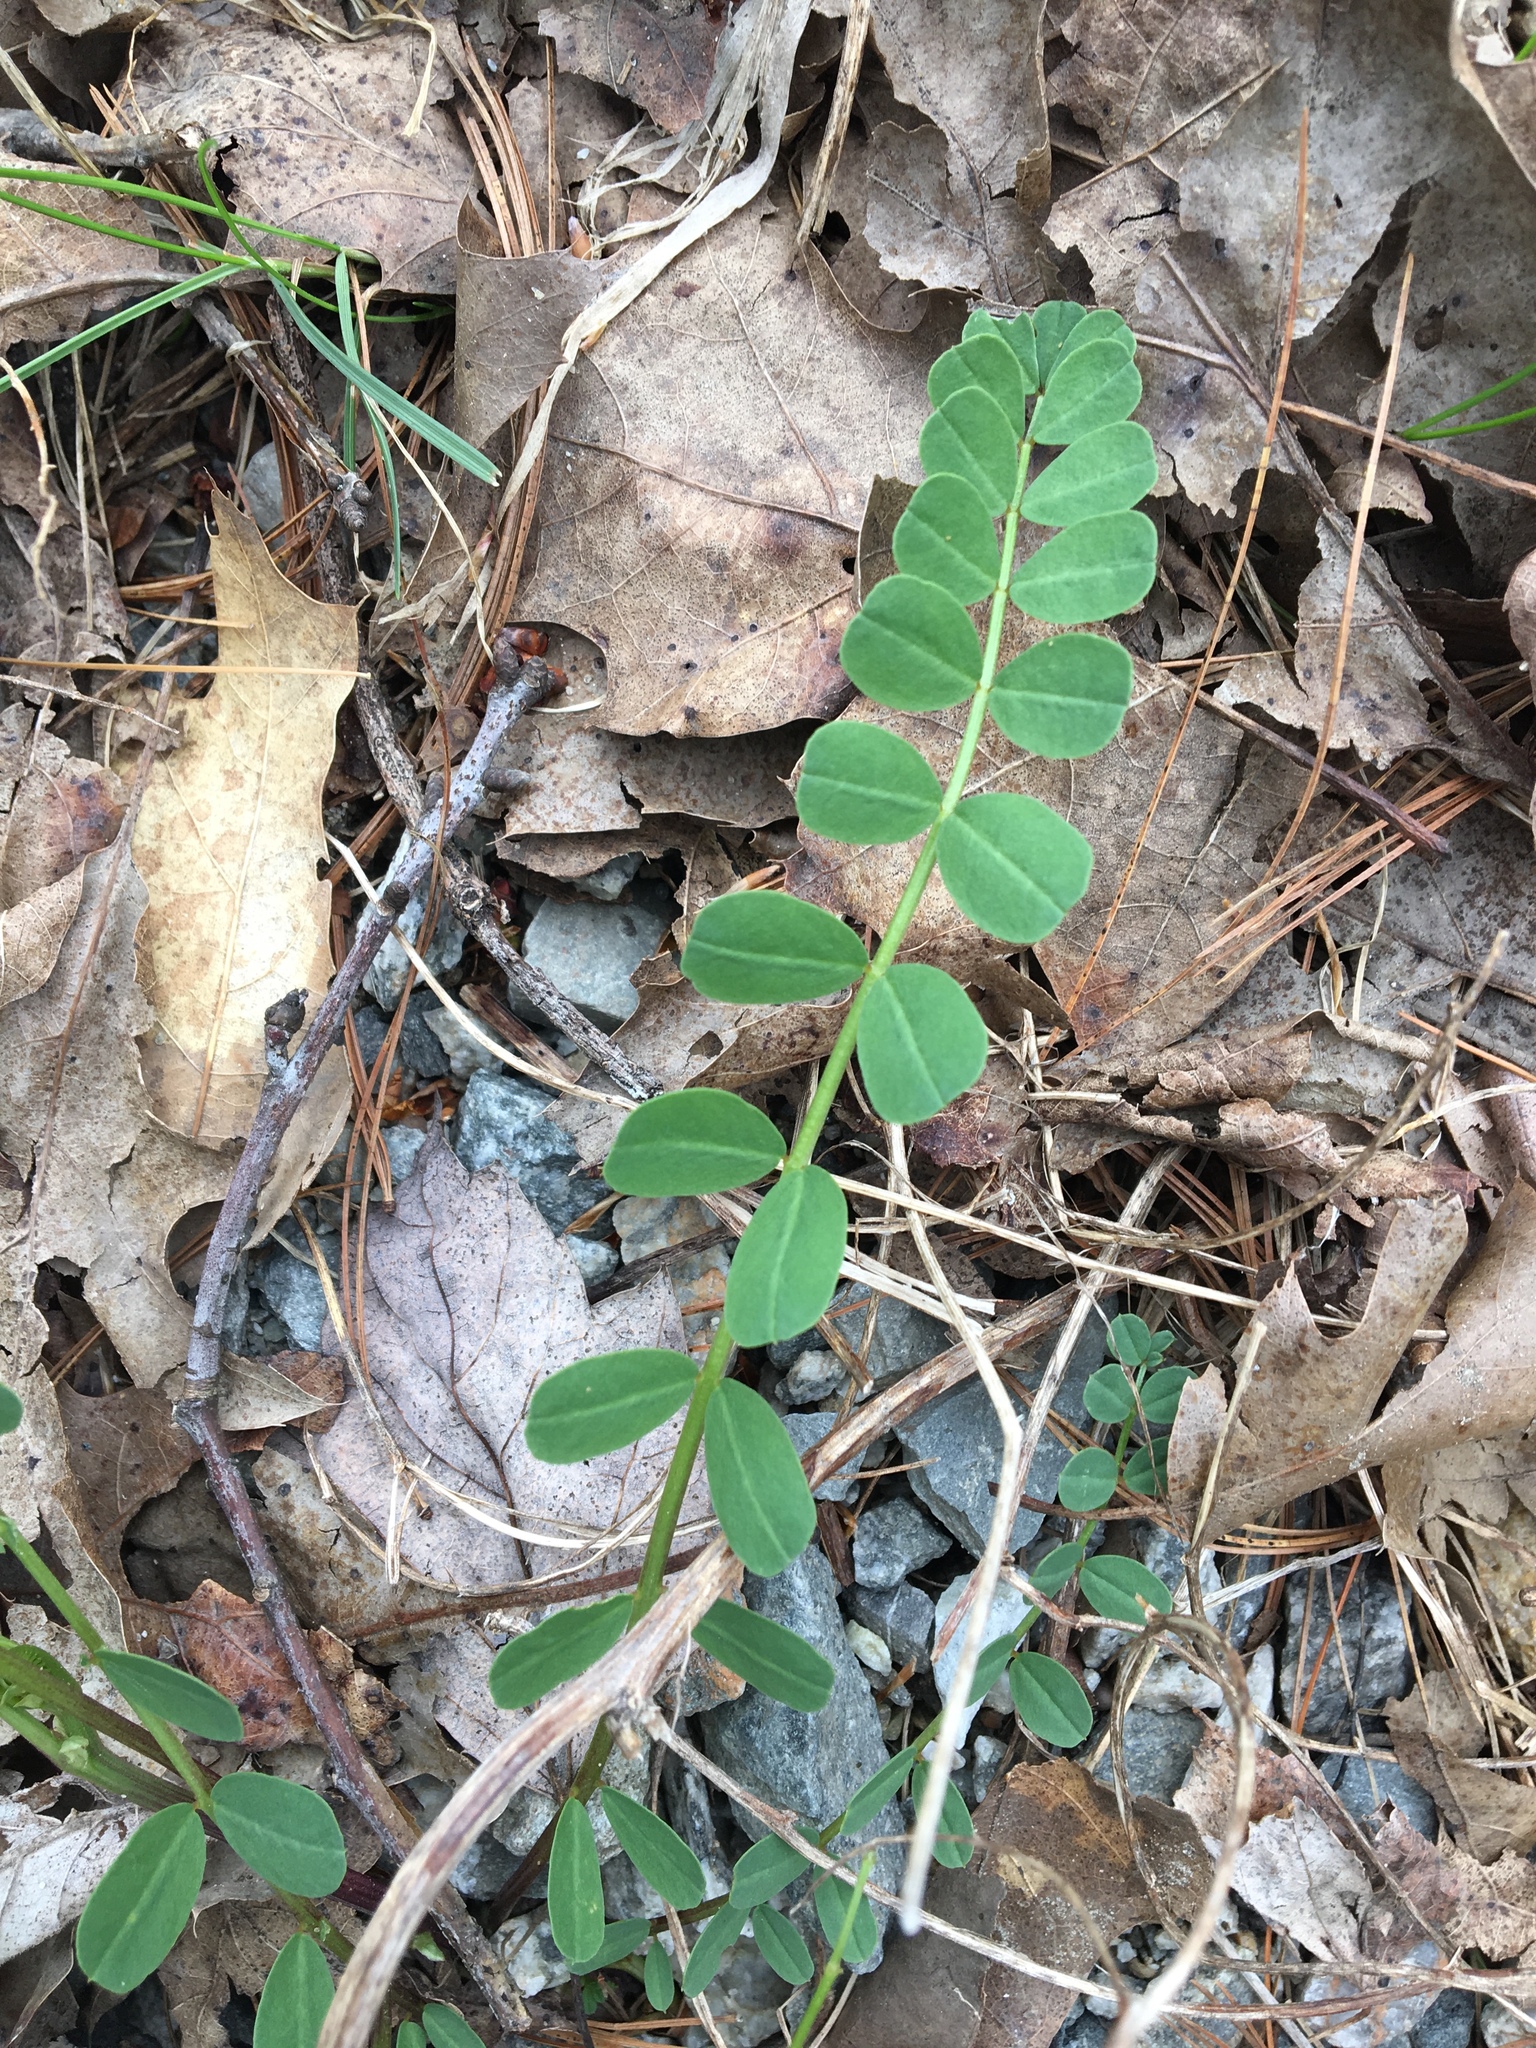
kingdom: Plantae
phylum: Tracheophyta
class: Magnoliopsida
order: Fabales
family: Fabaceae
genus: Coronilla
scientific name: Coronilla varia
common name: Crownvetch
